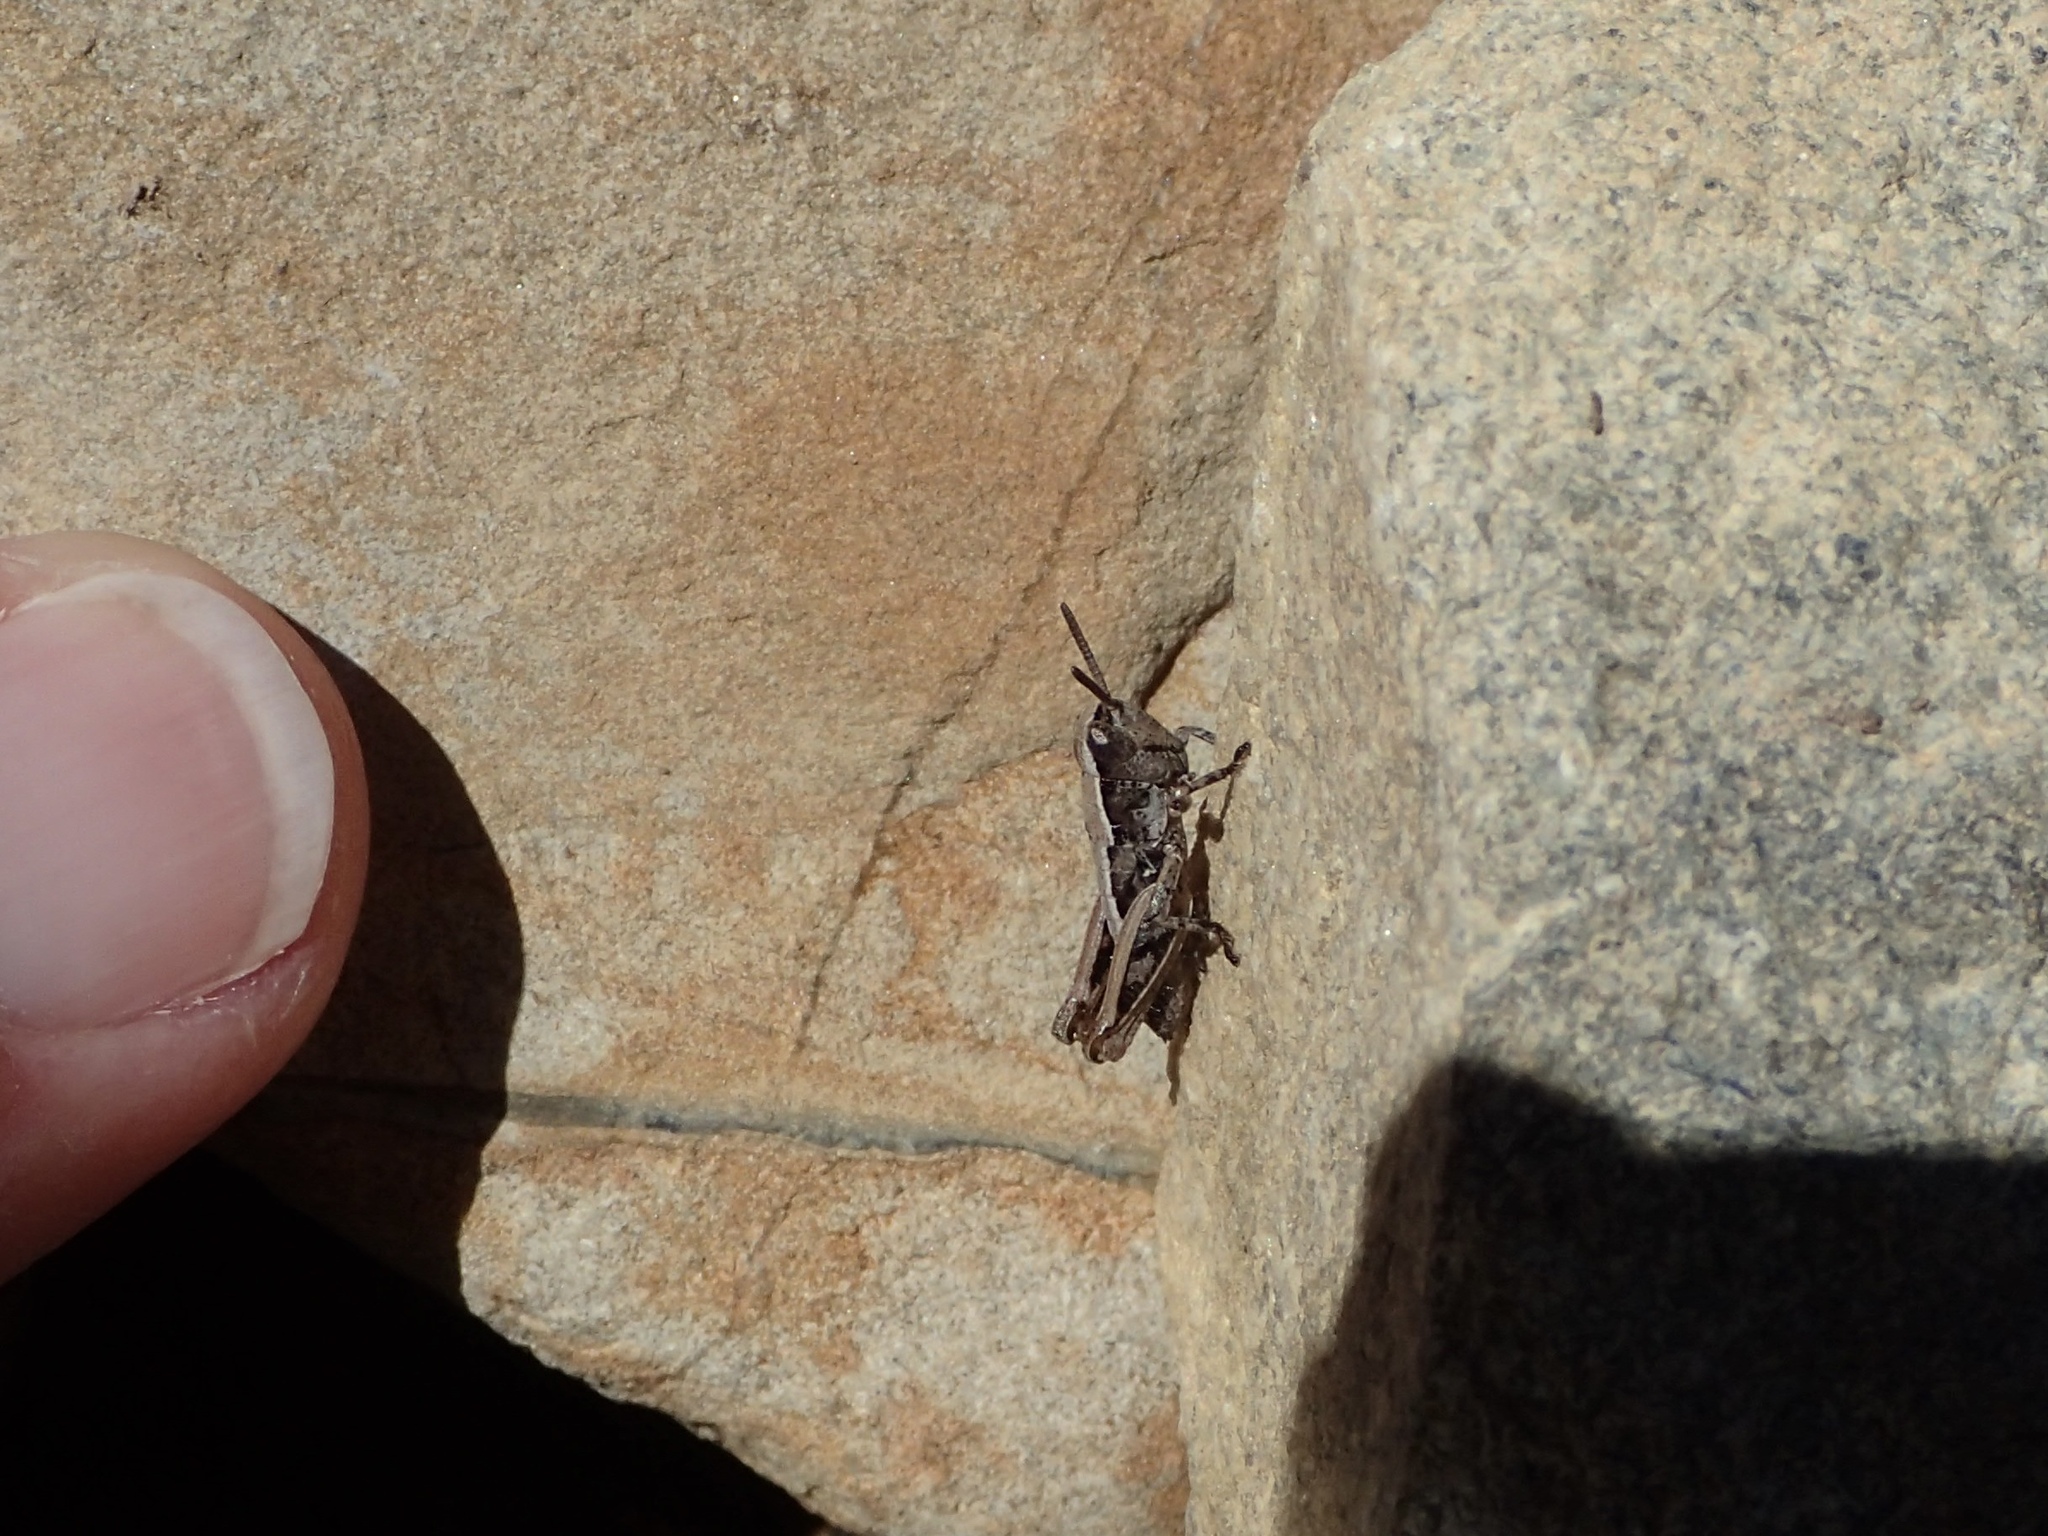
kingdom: Animalia
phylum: Arthropoda
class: Insecta
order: Orthoptera
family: Acrididae
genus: Sigaus
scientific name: Sigaus australis
